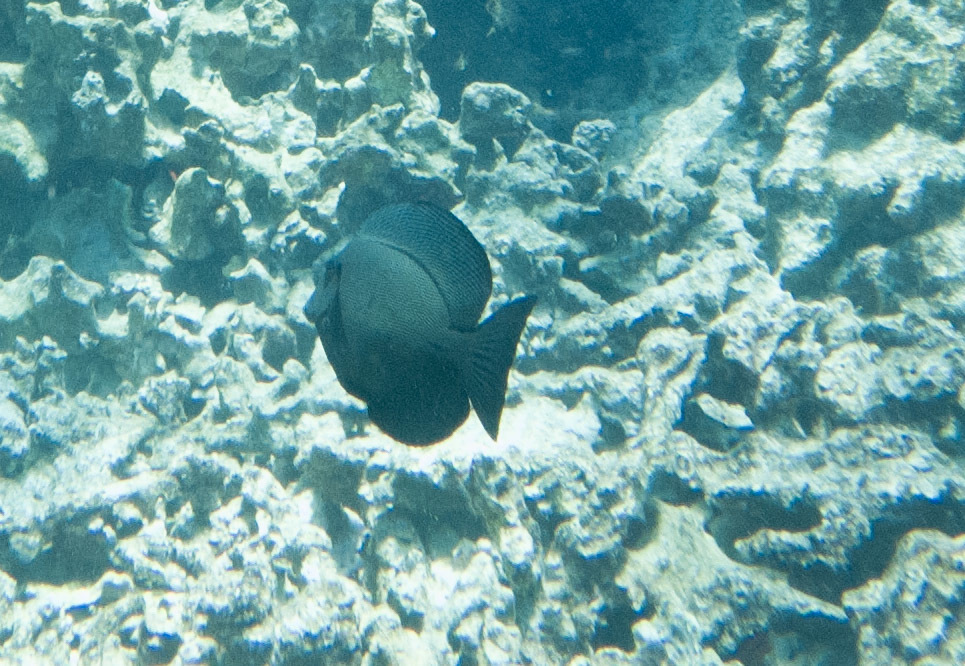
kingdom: Animalia
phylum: Chordata
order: Perciformes
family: Acanthuridae
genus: Ctenochaetus
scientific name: Ctenochaetus hawaiiensis
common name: Hawaiian surgeonfish
